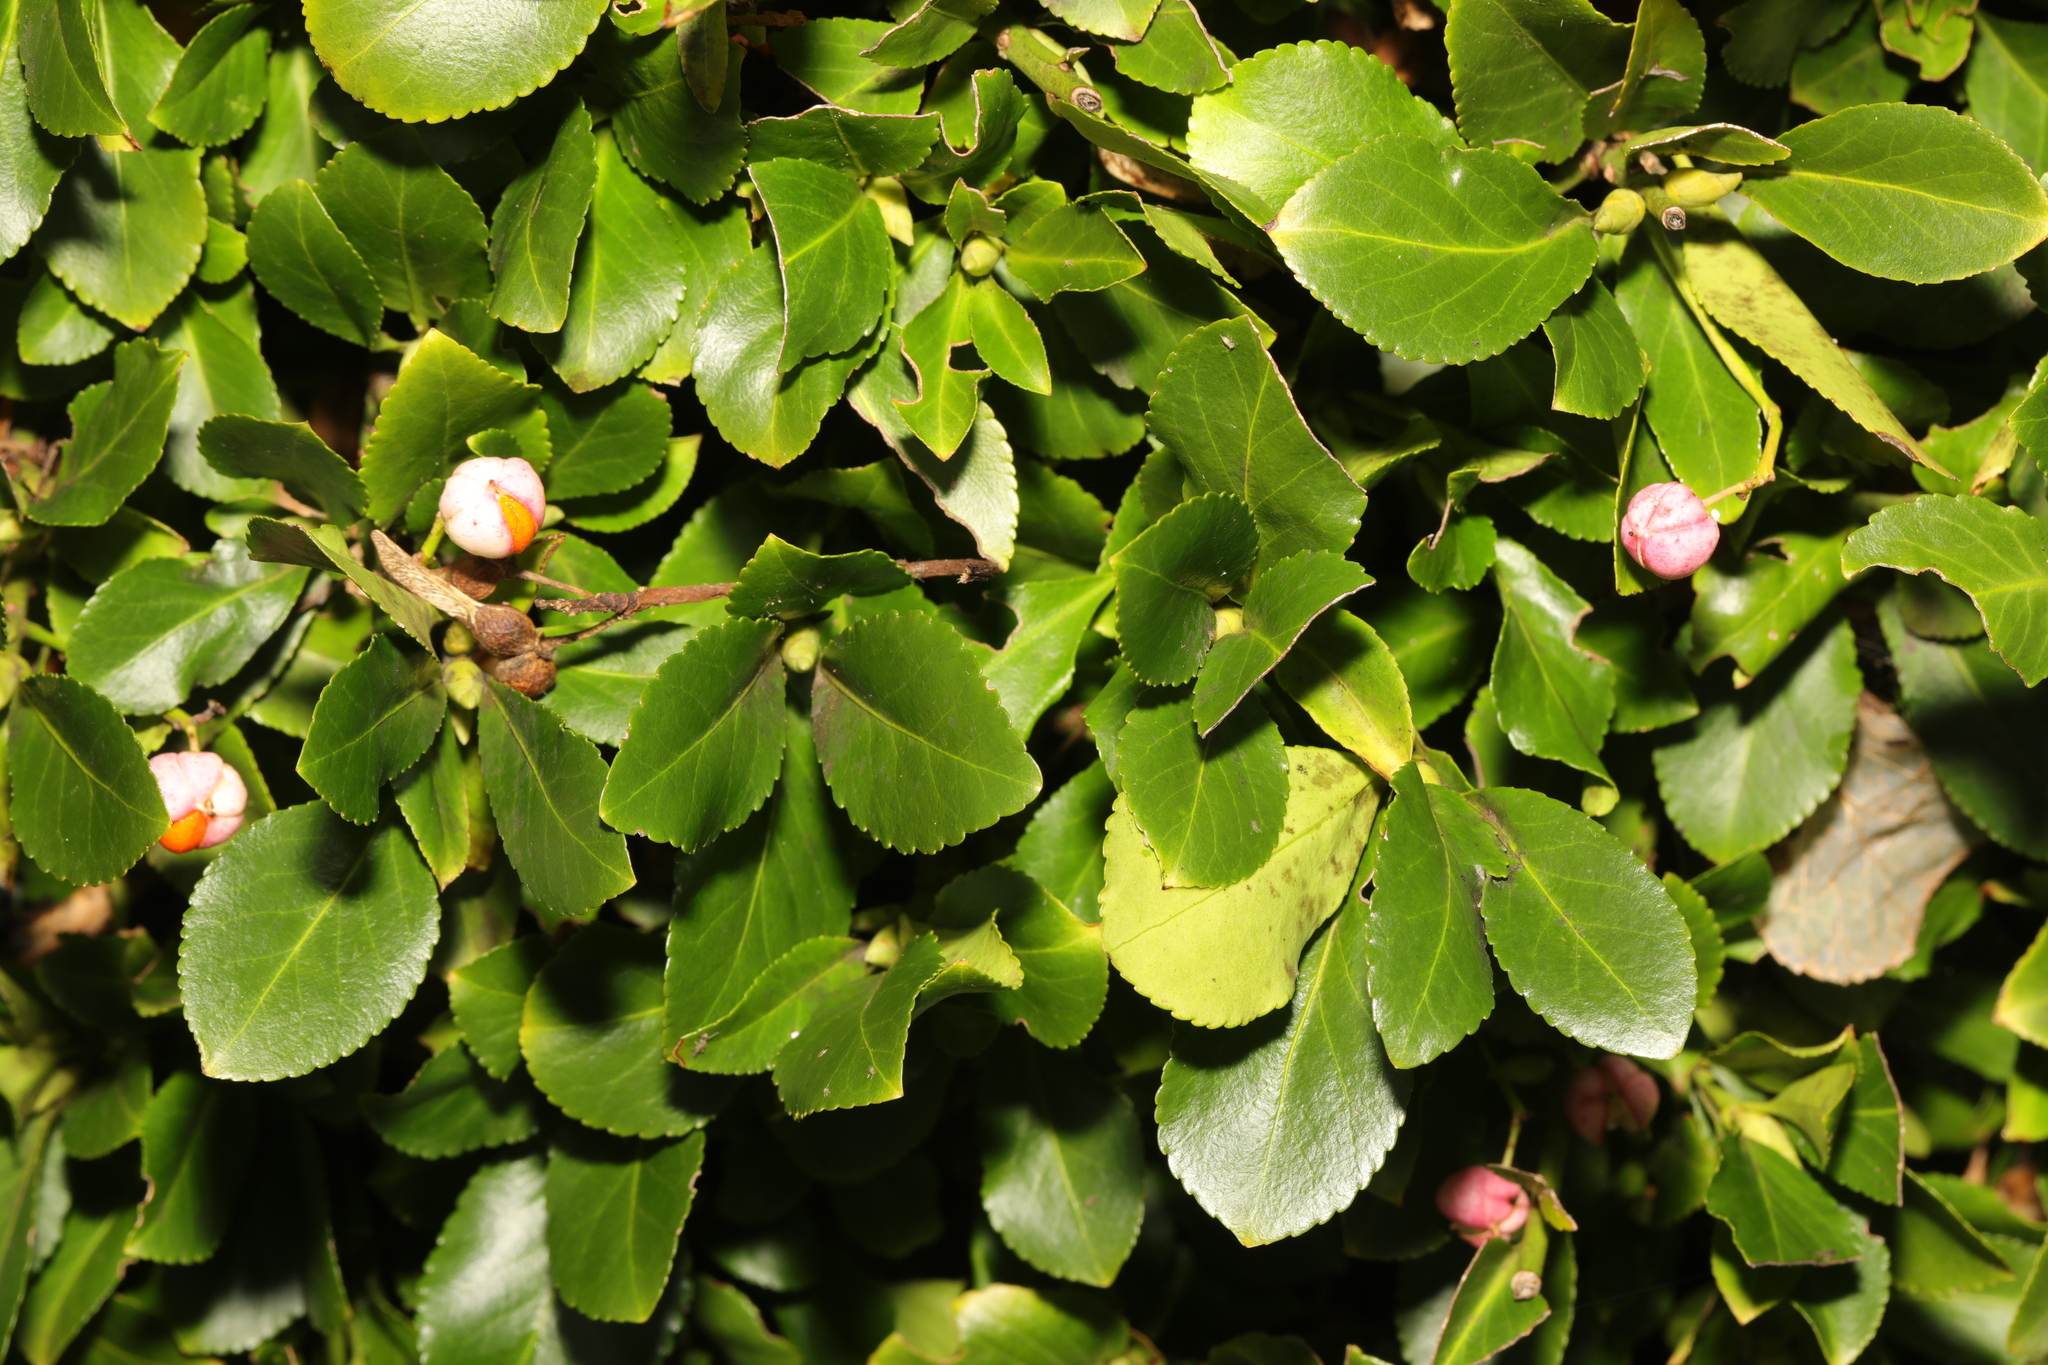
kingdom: Plantae
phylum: Tracheophyta
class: Magnoliopsida
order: Celastrales
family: Celastraceae
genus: Euonymus
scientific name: Euonymus japonicus
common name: Japanese spindletree
